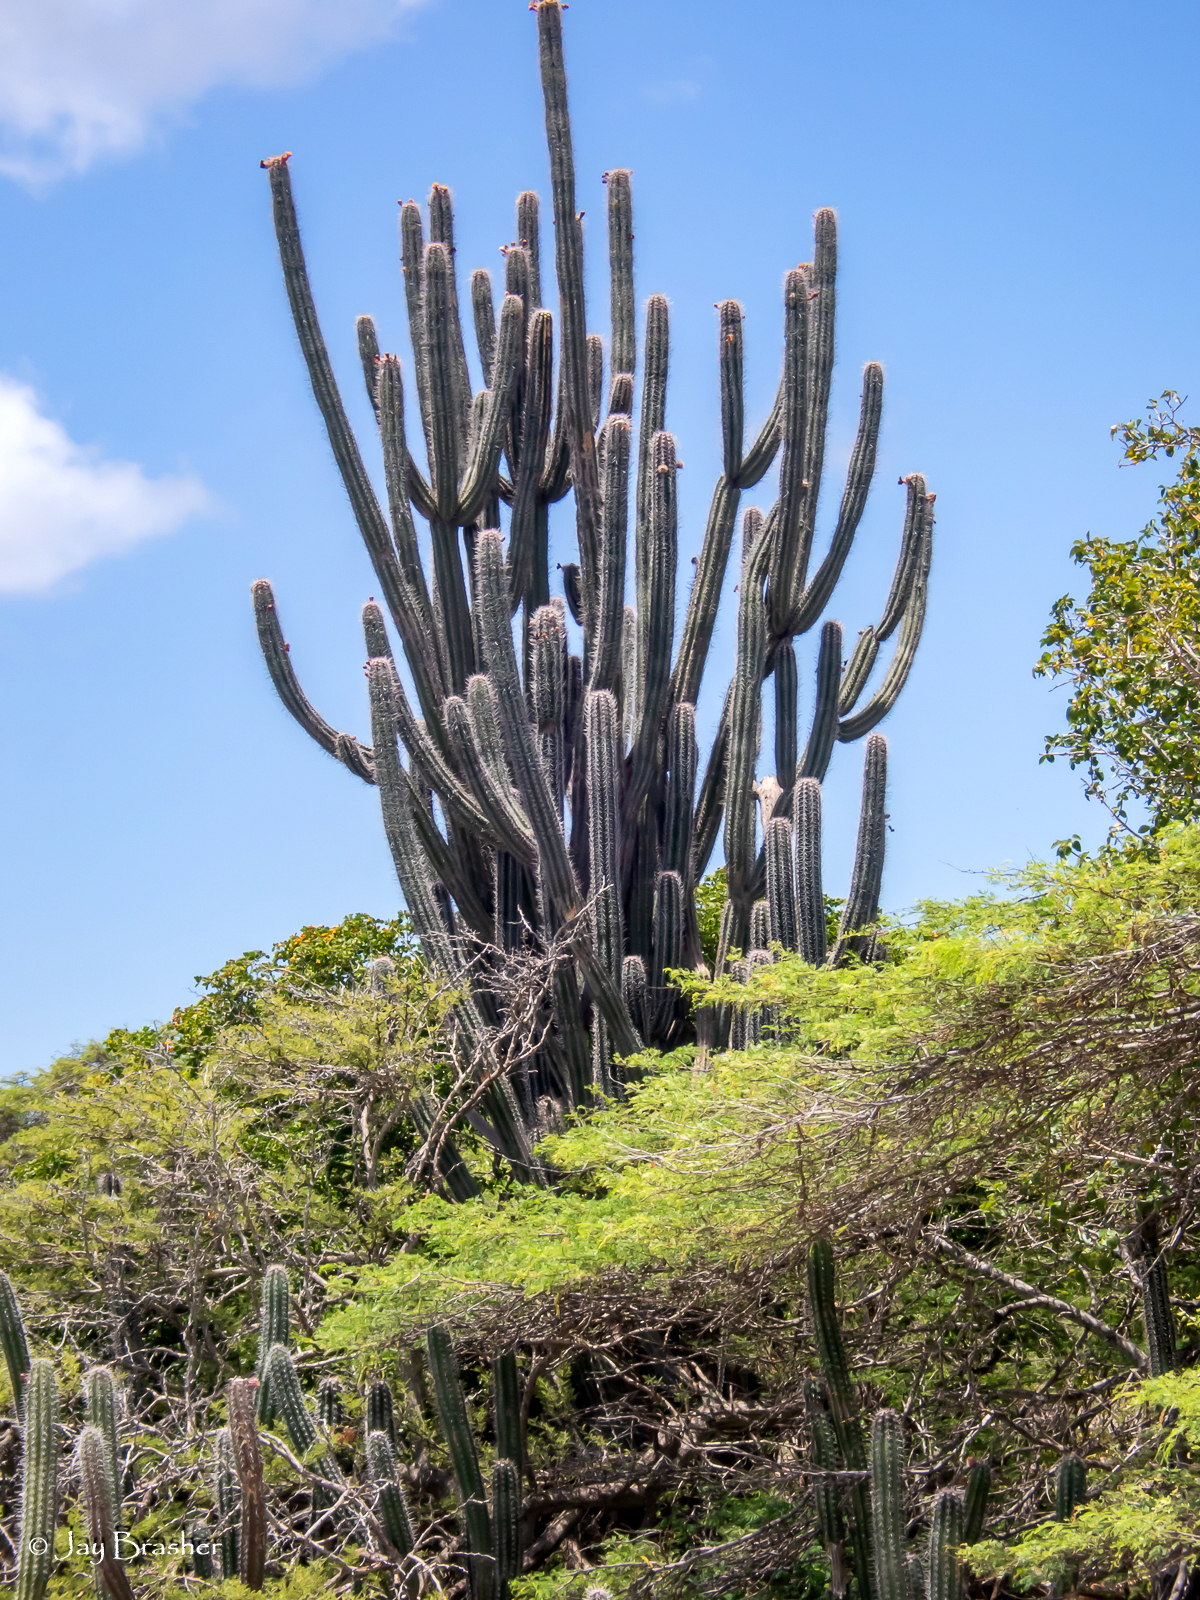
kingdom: Plantae
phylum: Tracheophyta
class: Magnoliopsida
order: Caryophyllales
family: Cactaceae
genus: Stenocereus
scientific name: Stenocereus griseus
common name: Tall candelabra cactus
